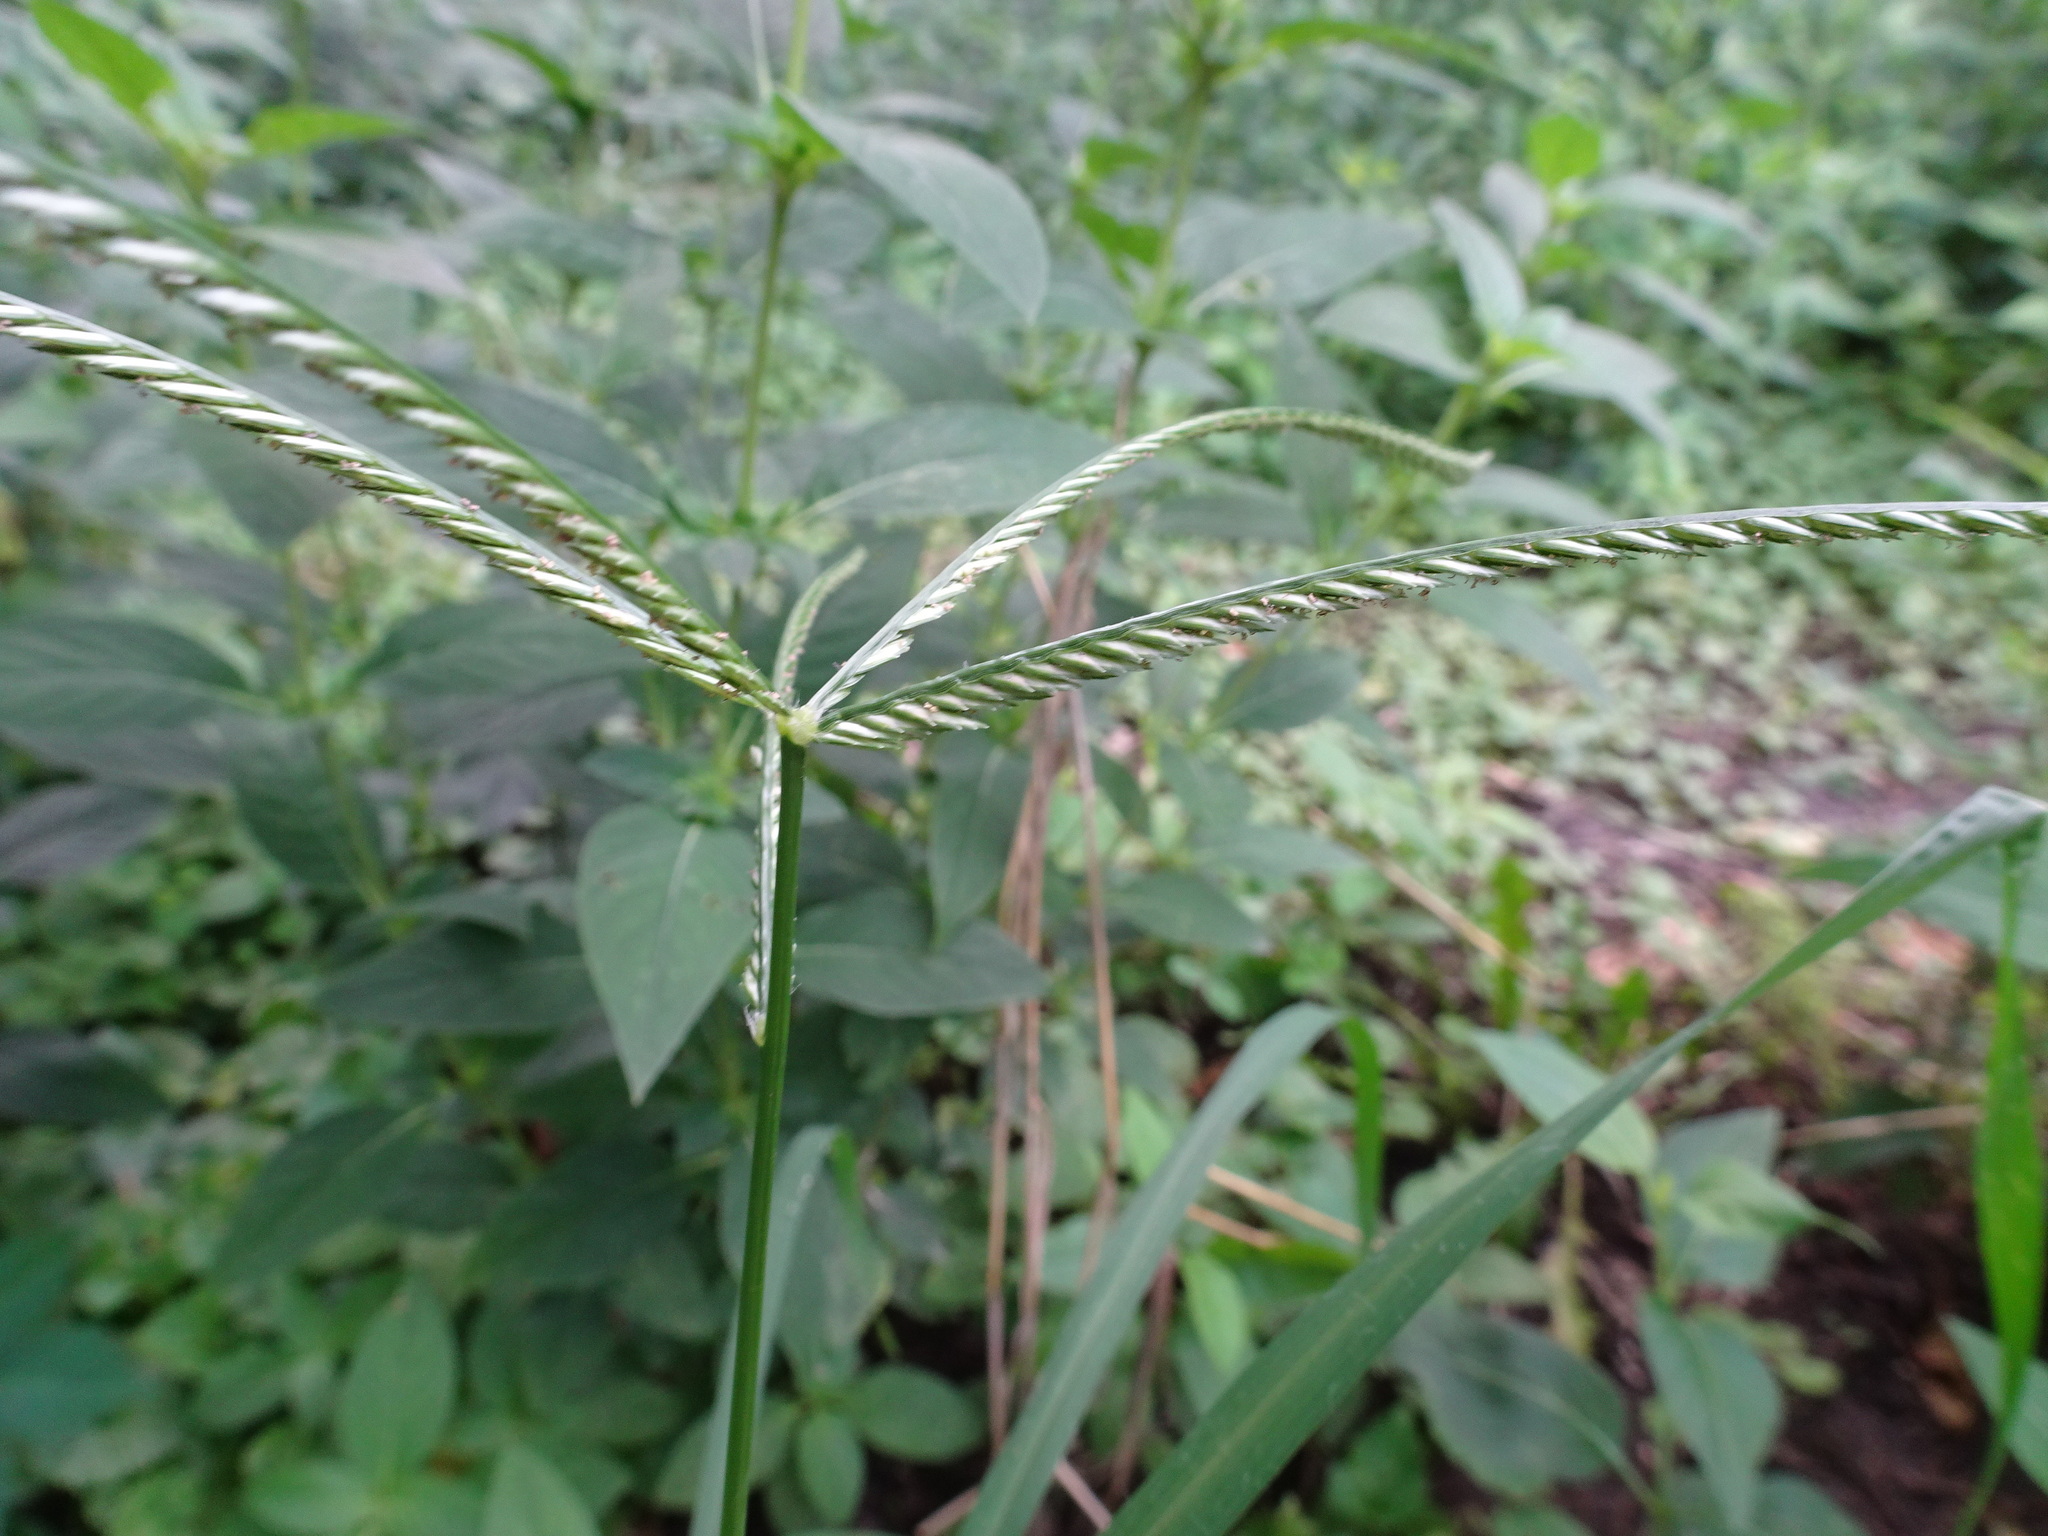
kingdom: Plantae
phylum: Tracheophyta
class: Liliopsida
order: Poales
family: Poaceae
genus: Eleusine
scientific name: Eleusine indica
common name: Yard-grass
